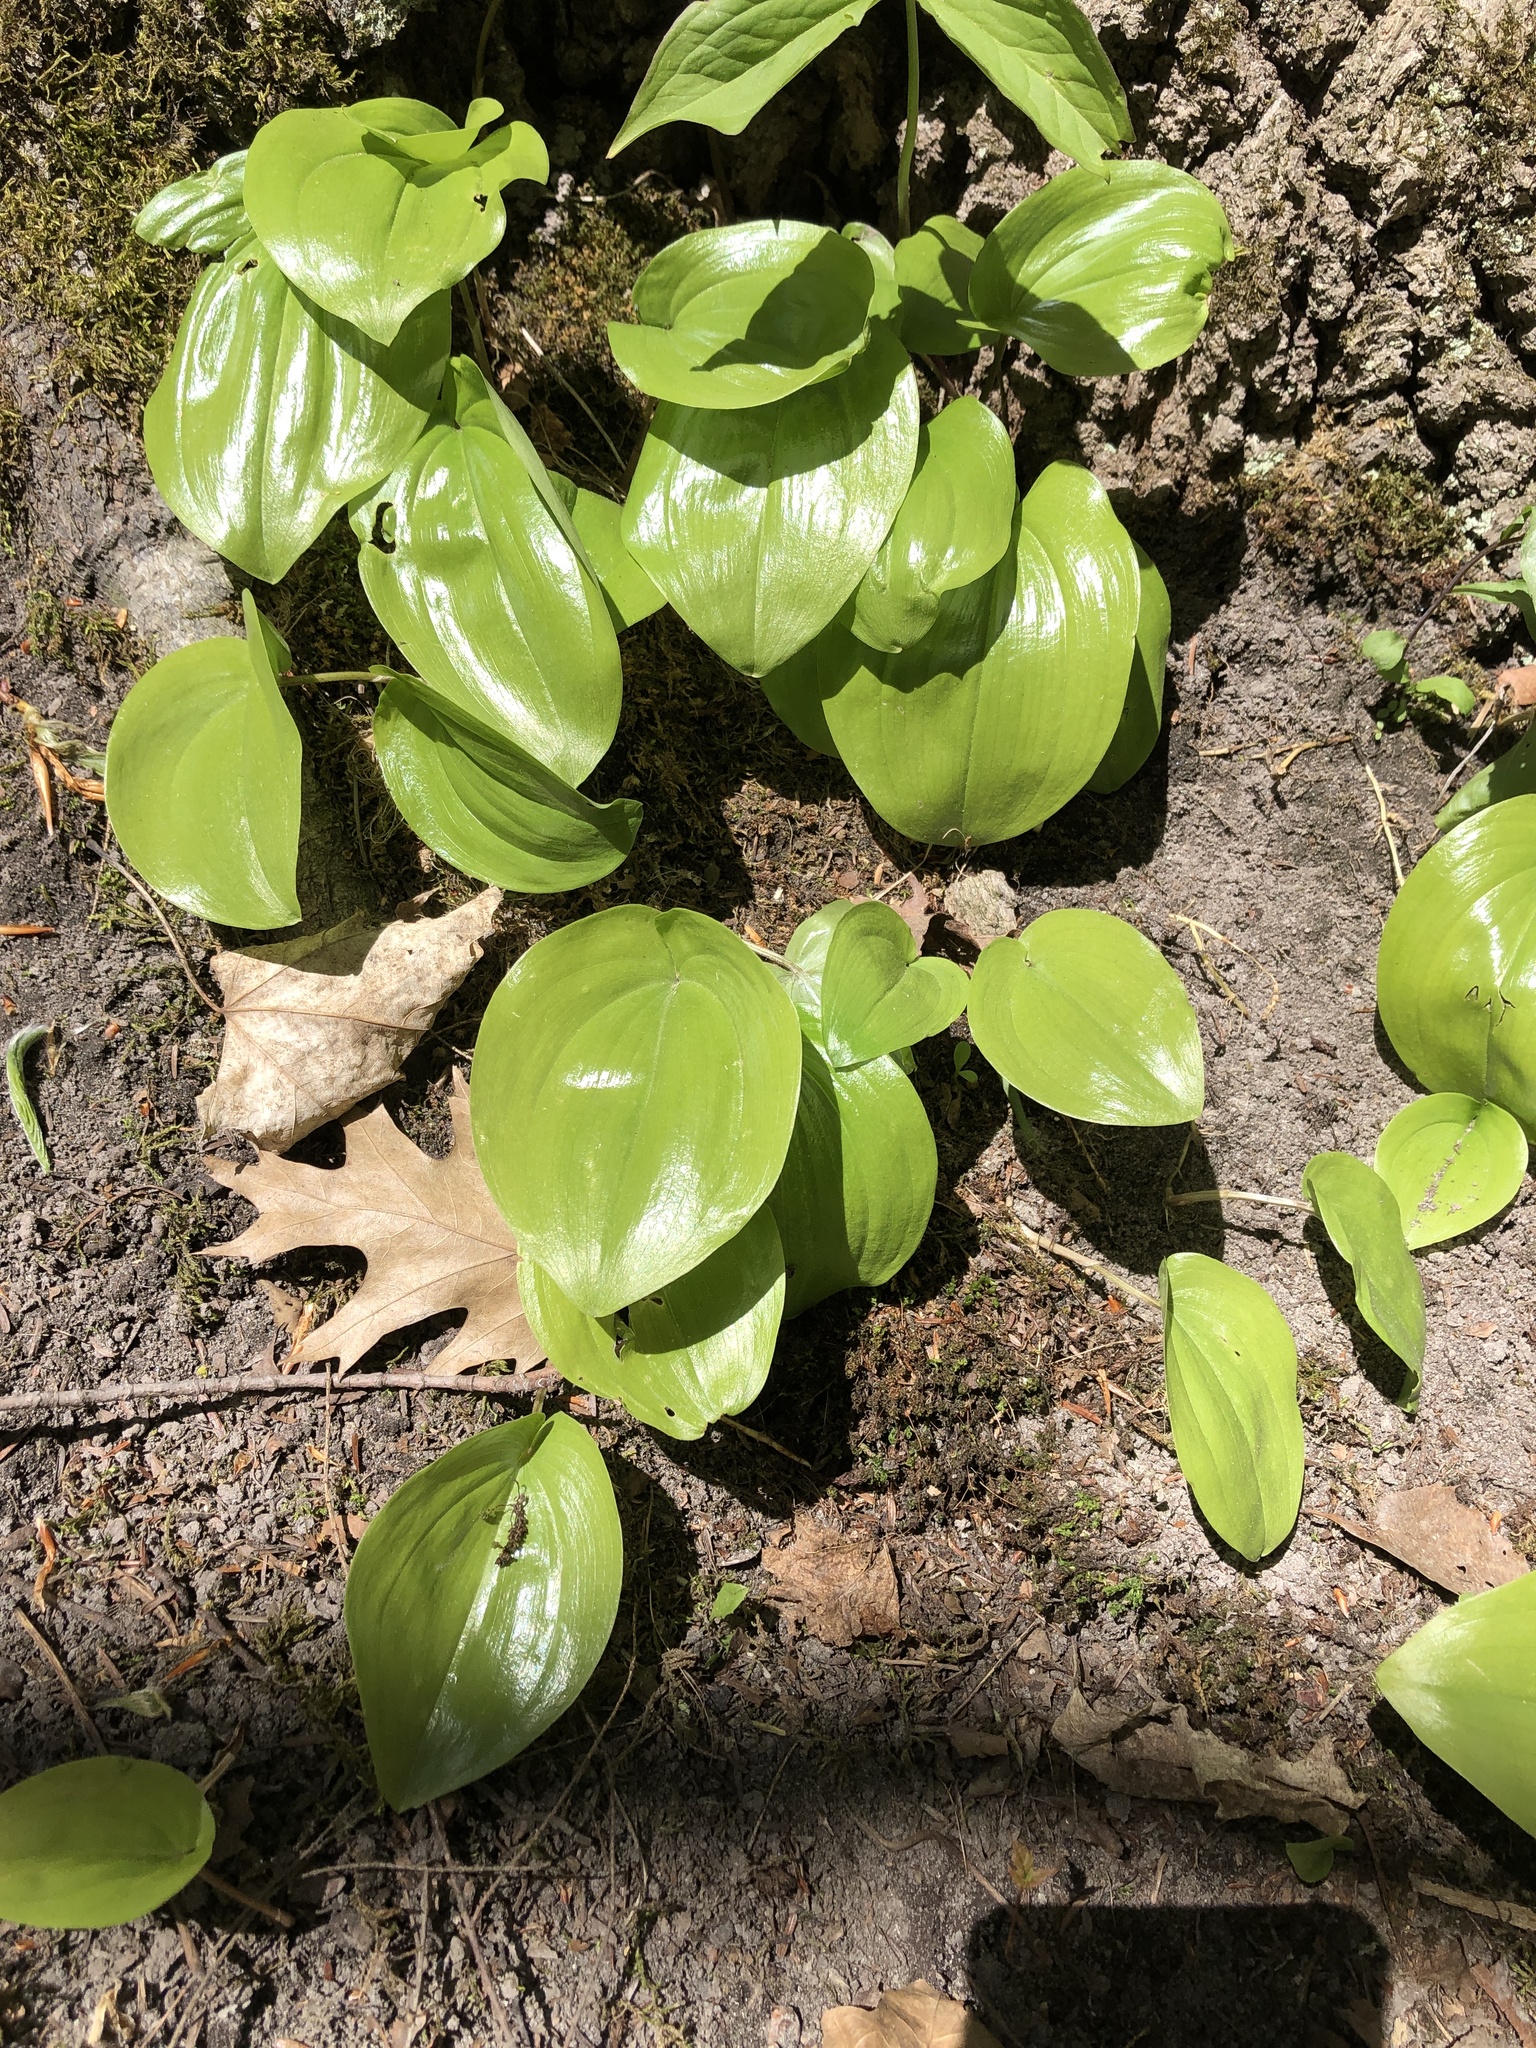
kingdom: Plantae
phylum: Tracheophyta
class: Liliopsida
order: Asparagales
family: Asparagaceae
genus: Maianthemum
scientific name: Maianthemum canadense
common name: False lily-of-the-valley
